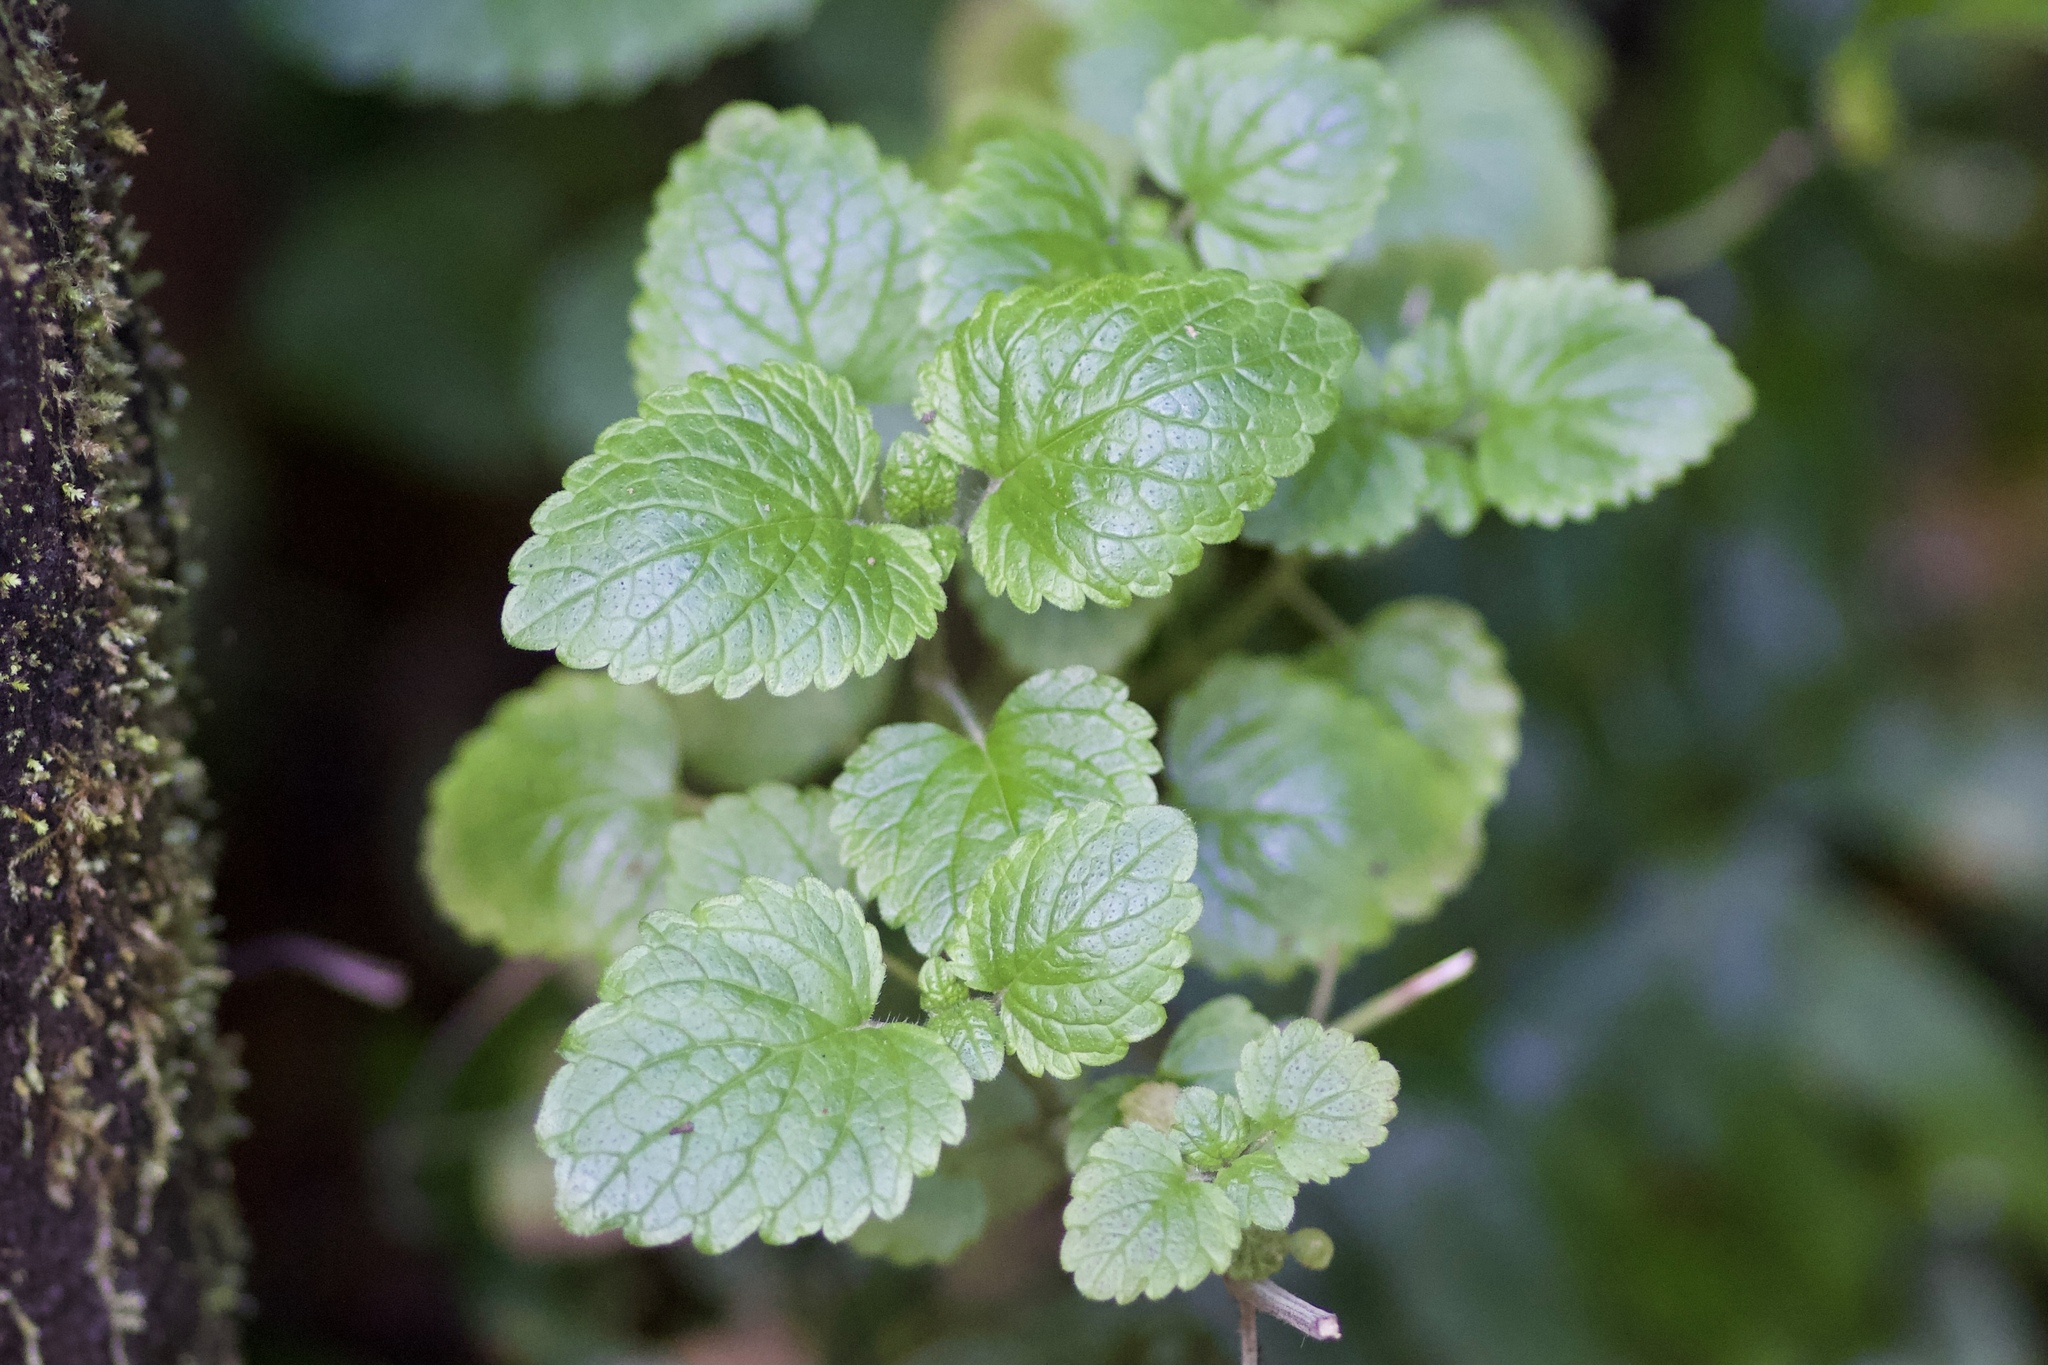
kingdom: Plantae
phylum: Tracheophyta
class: Magnoliopsida
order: Lamiales
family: Lamiaceae
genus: Melissa
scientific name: Melissa officinalis
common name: Balm
